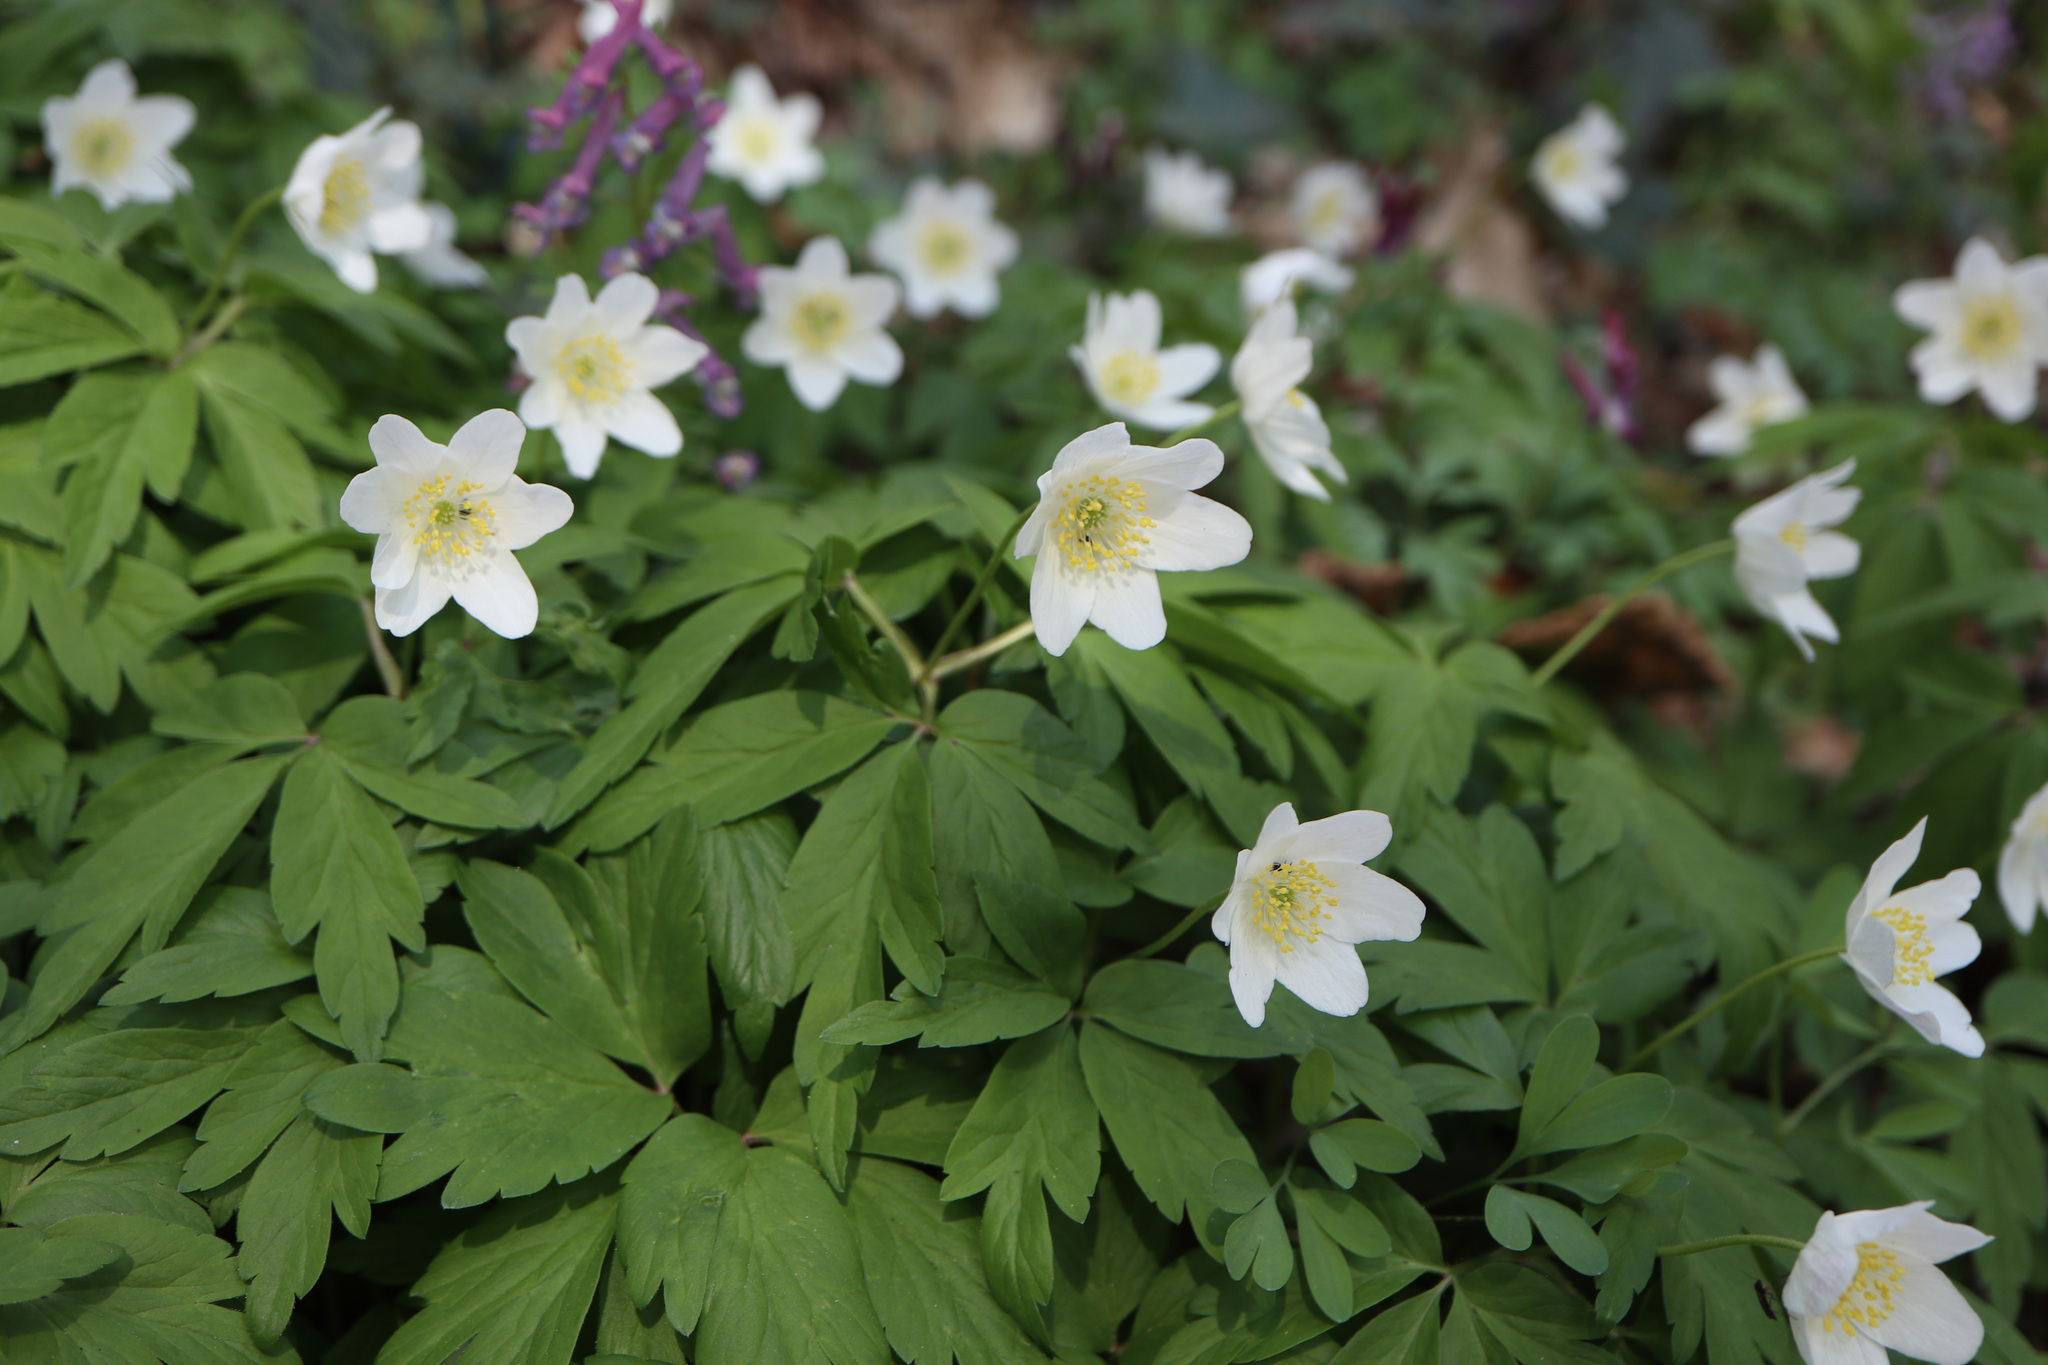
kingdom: Plantae
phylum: Tracheophyta
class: Magnoliopsida
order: Ranunculales
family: Ranunculaceae
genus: Anemone
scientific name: Anemone nemorosa
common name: Wood anemone
